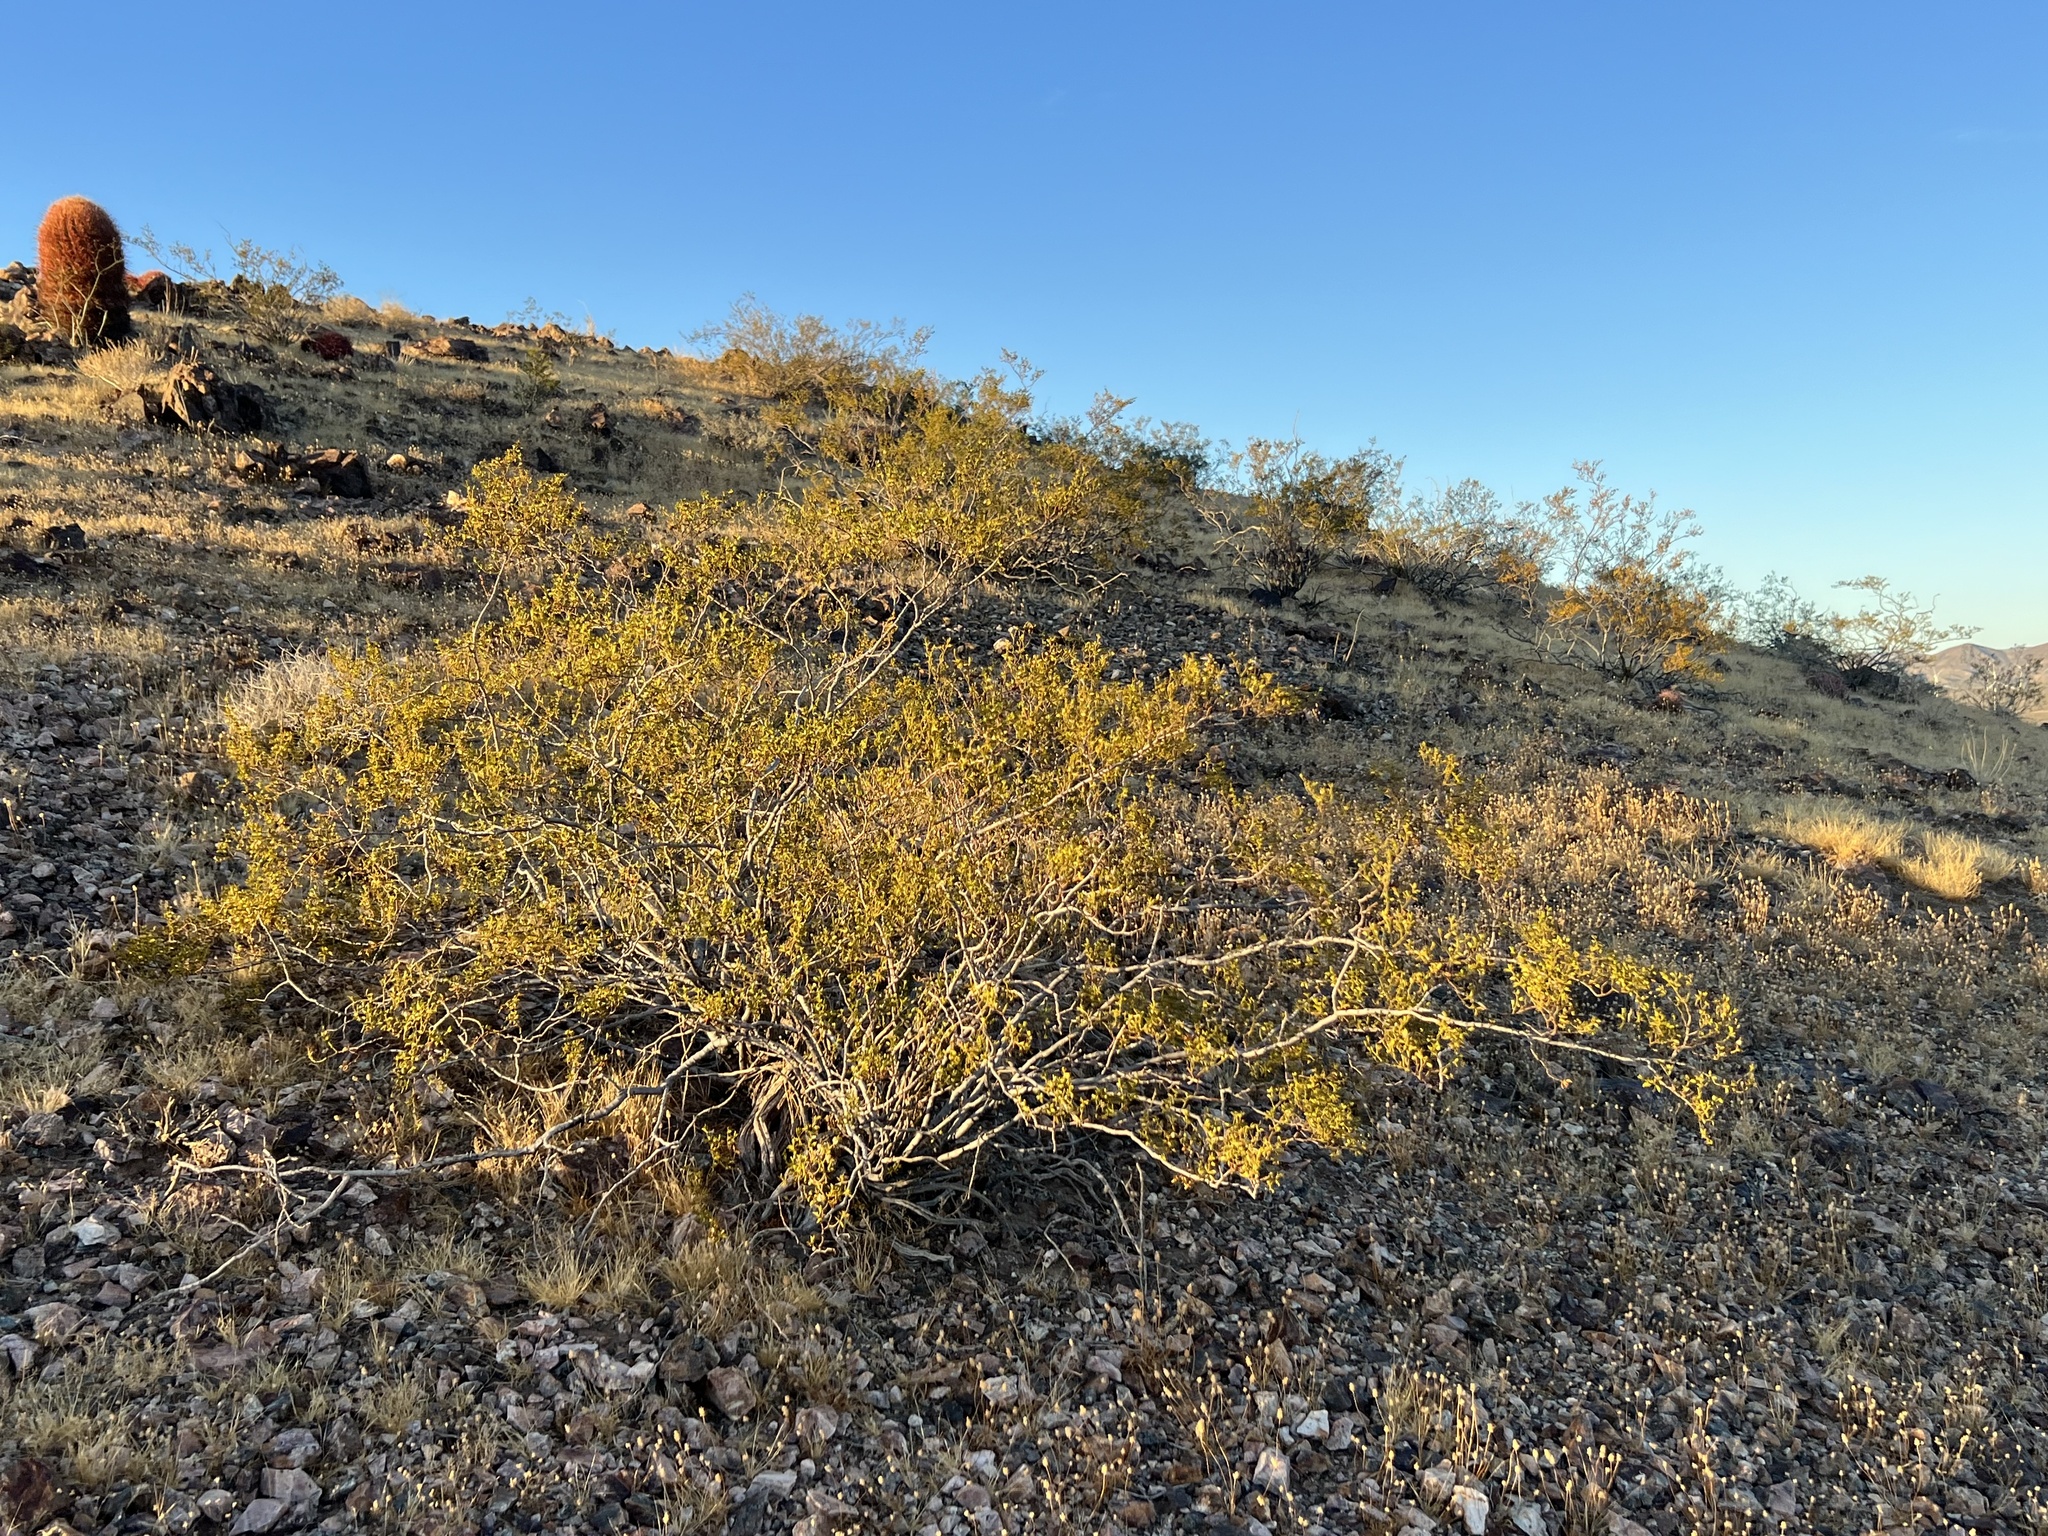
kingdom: Plantae
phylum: Tracheophyta
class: Magnoliopsida
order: Zygophyllales
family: Zygophyllaceae
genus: Larrea
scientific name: Larrea tridentata
